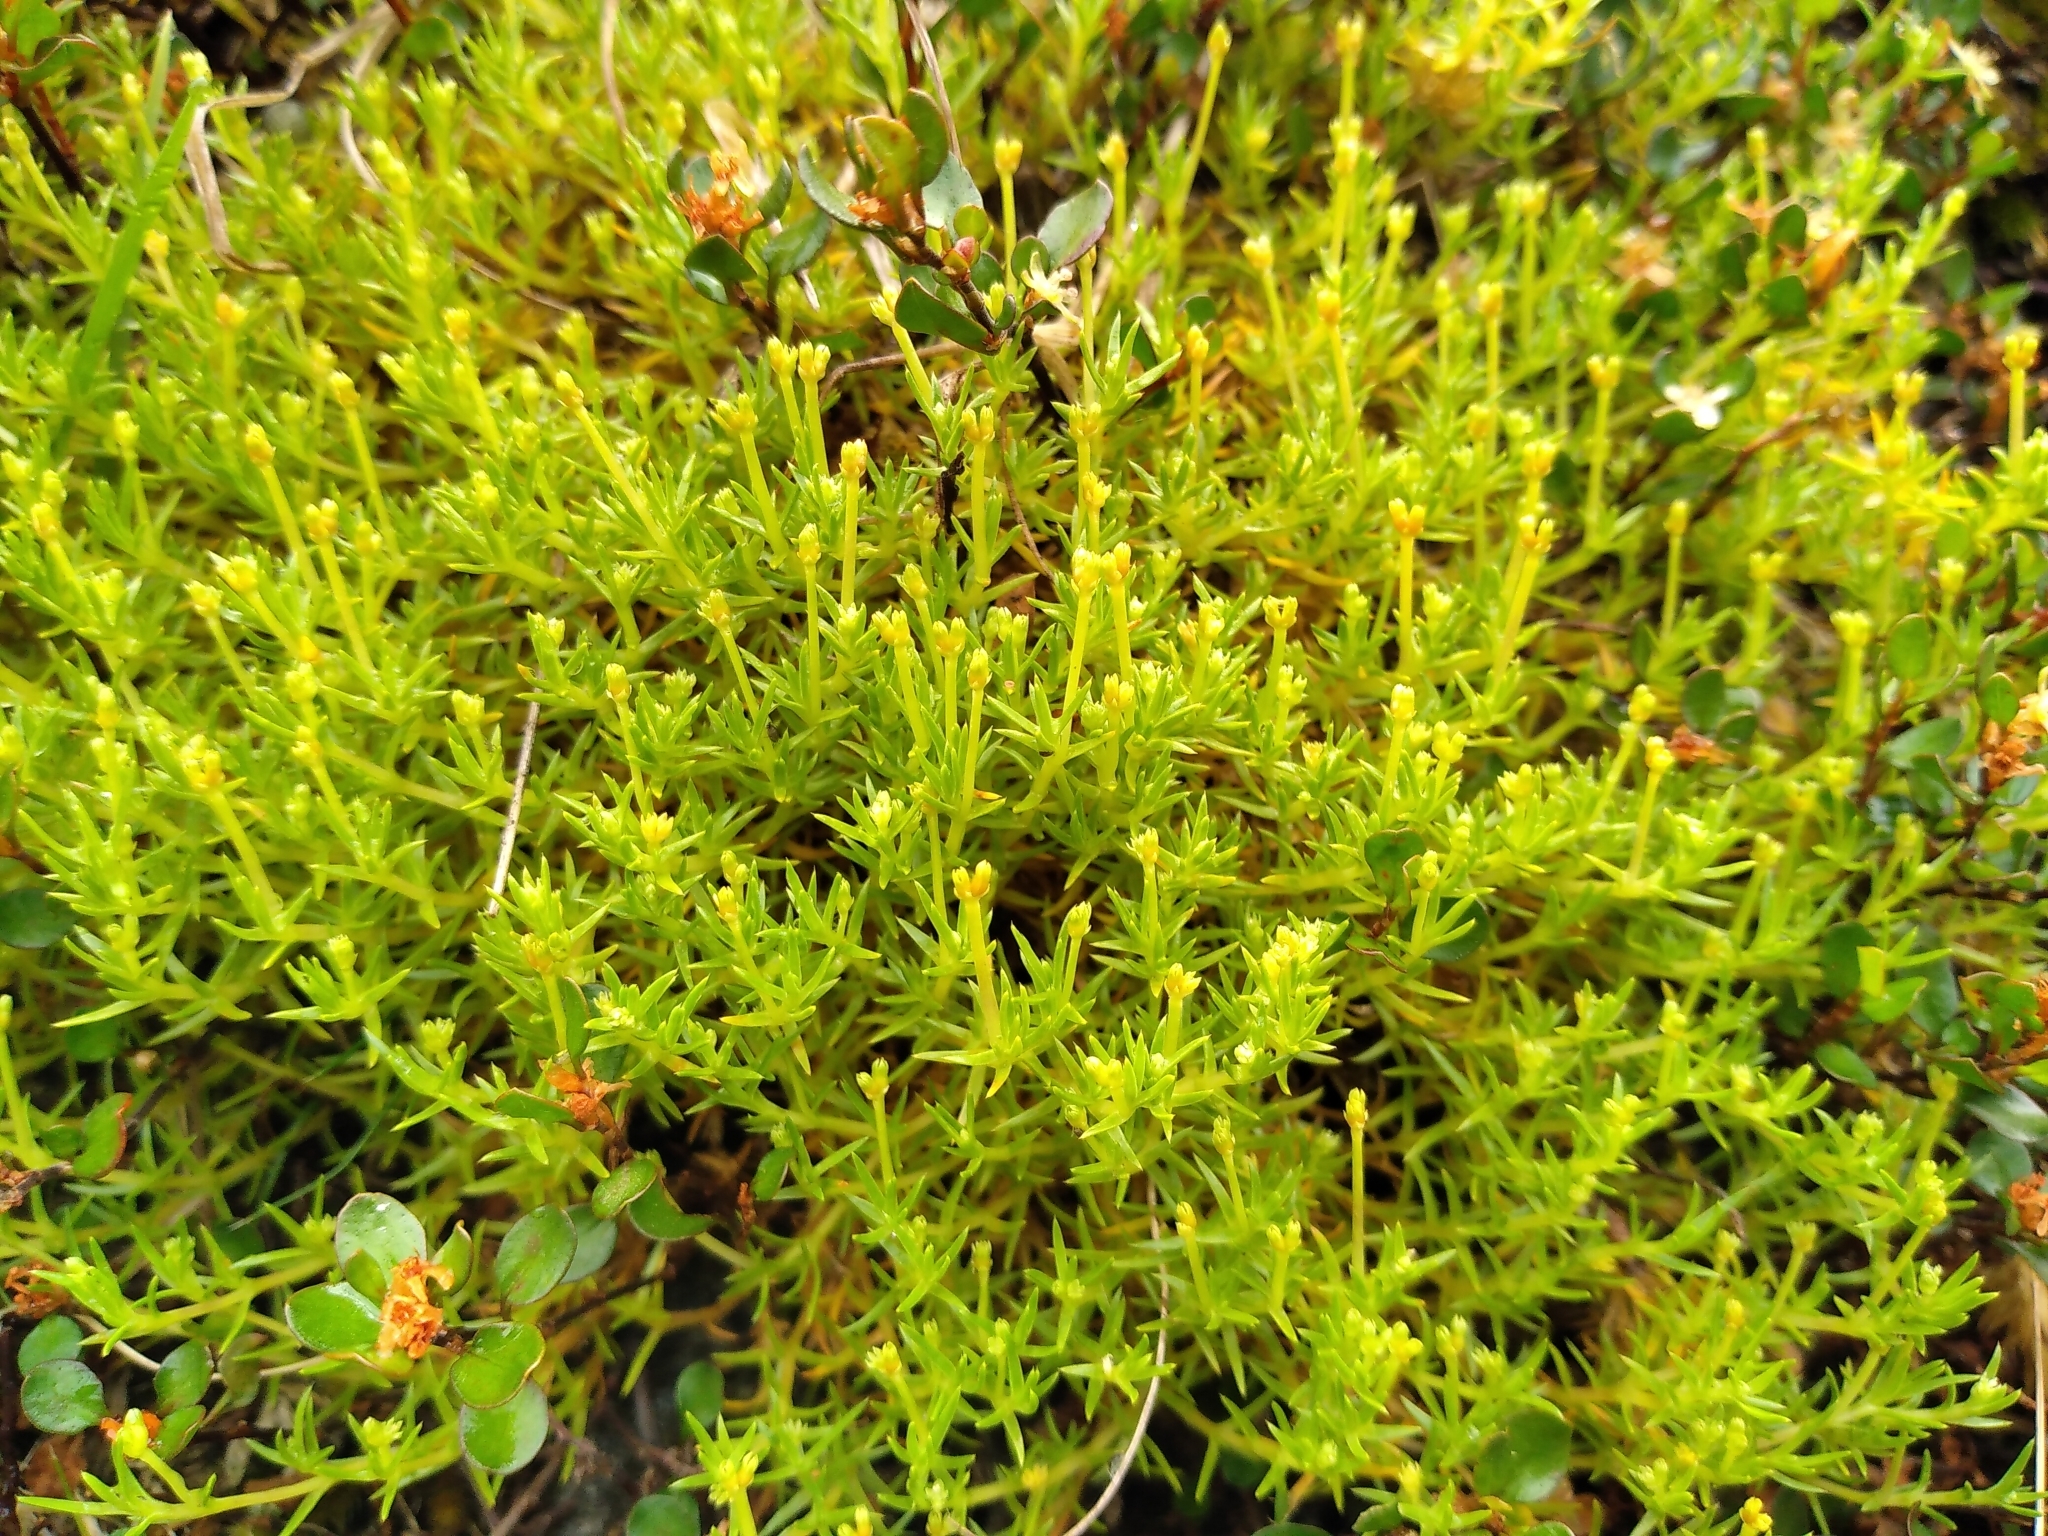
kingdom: Plantae
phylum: Tracheophyta
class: Magnoliopsida
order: Caryophyllales
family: Caryophyllaceae
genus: Scleranthus
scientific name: Scleranthus brockiei
